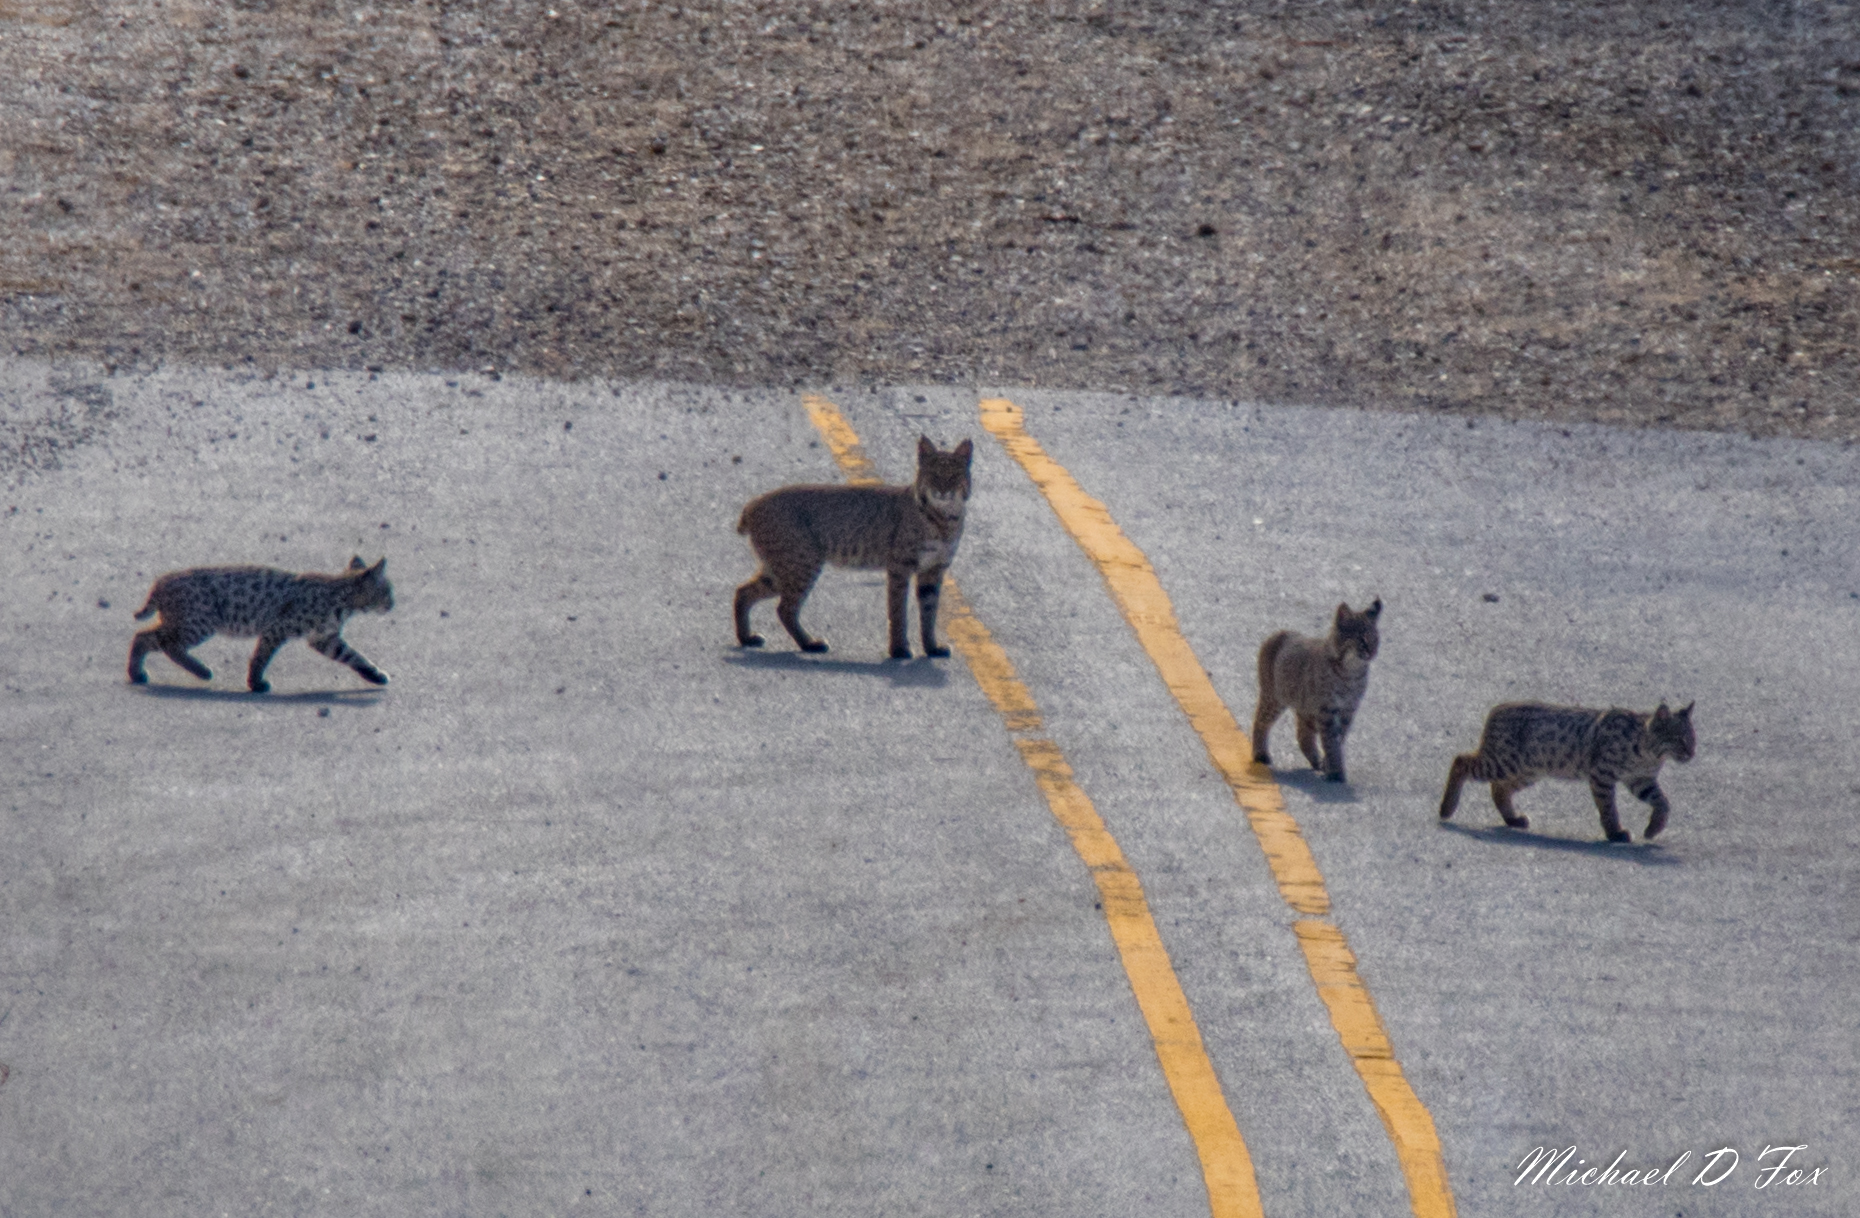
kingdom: Animalia
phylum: Chordata
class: Mammalia
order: Carnivora
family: Felidae
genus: Lynx
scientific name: Lynx rufus
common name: Bobcat
